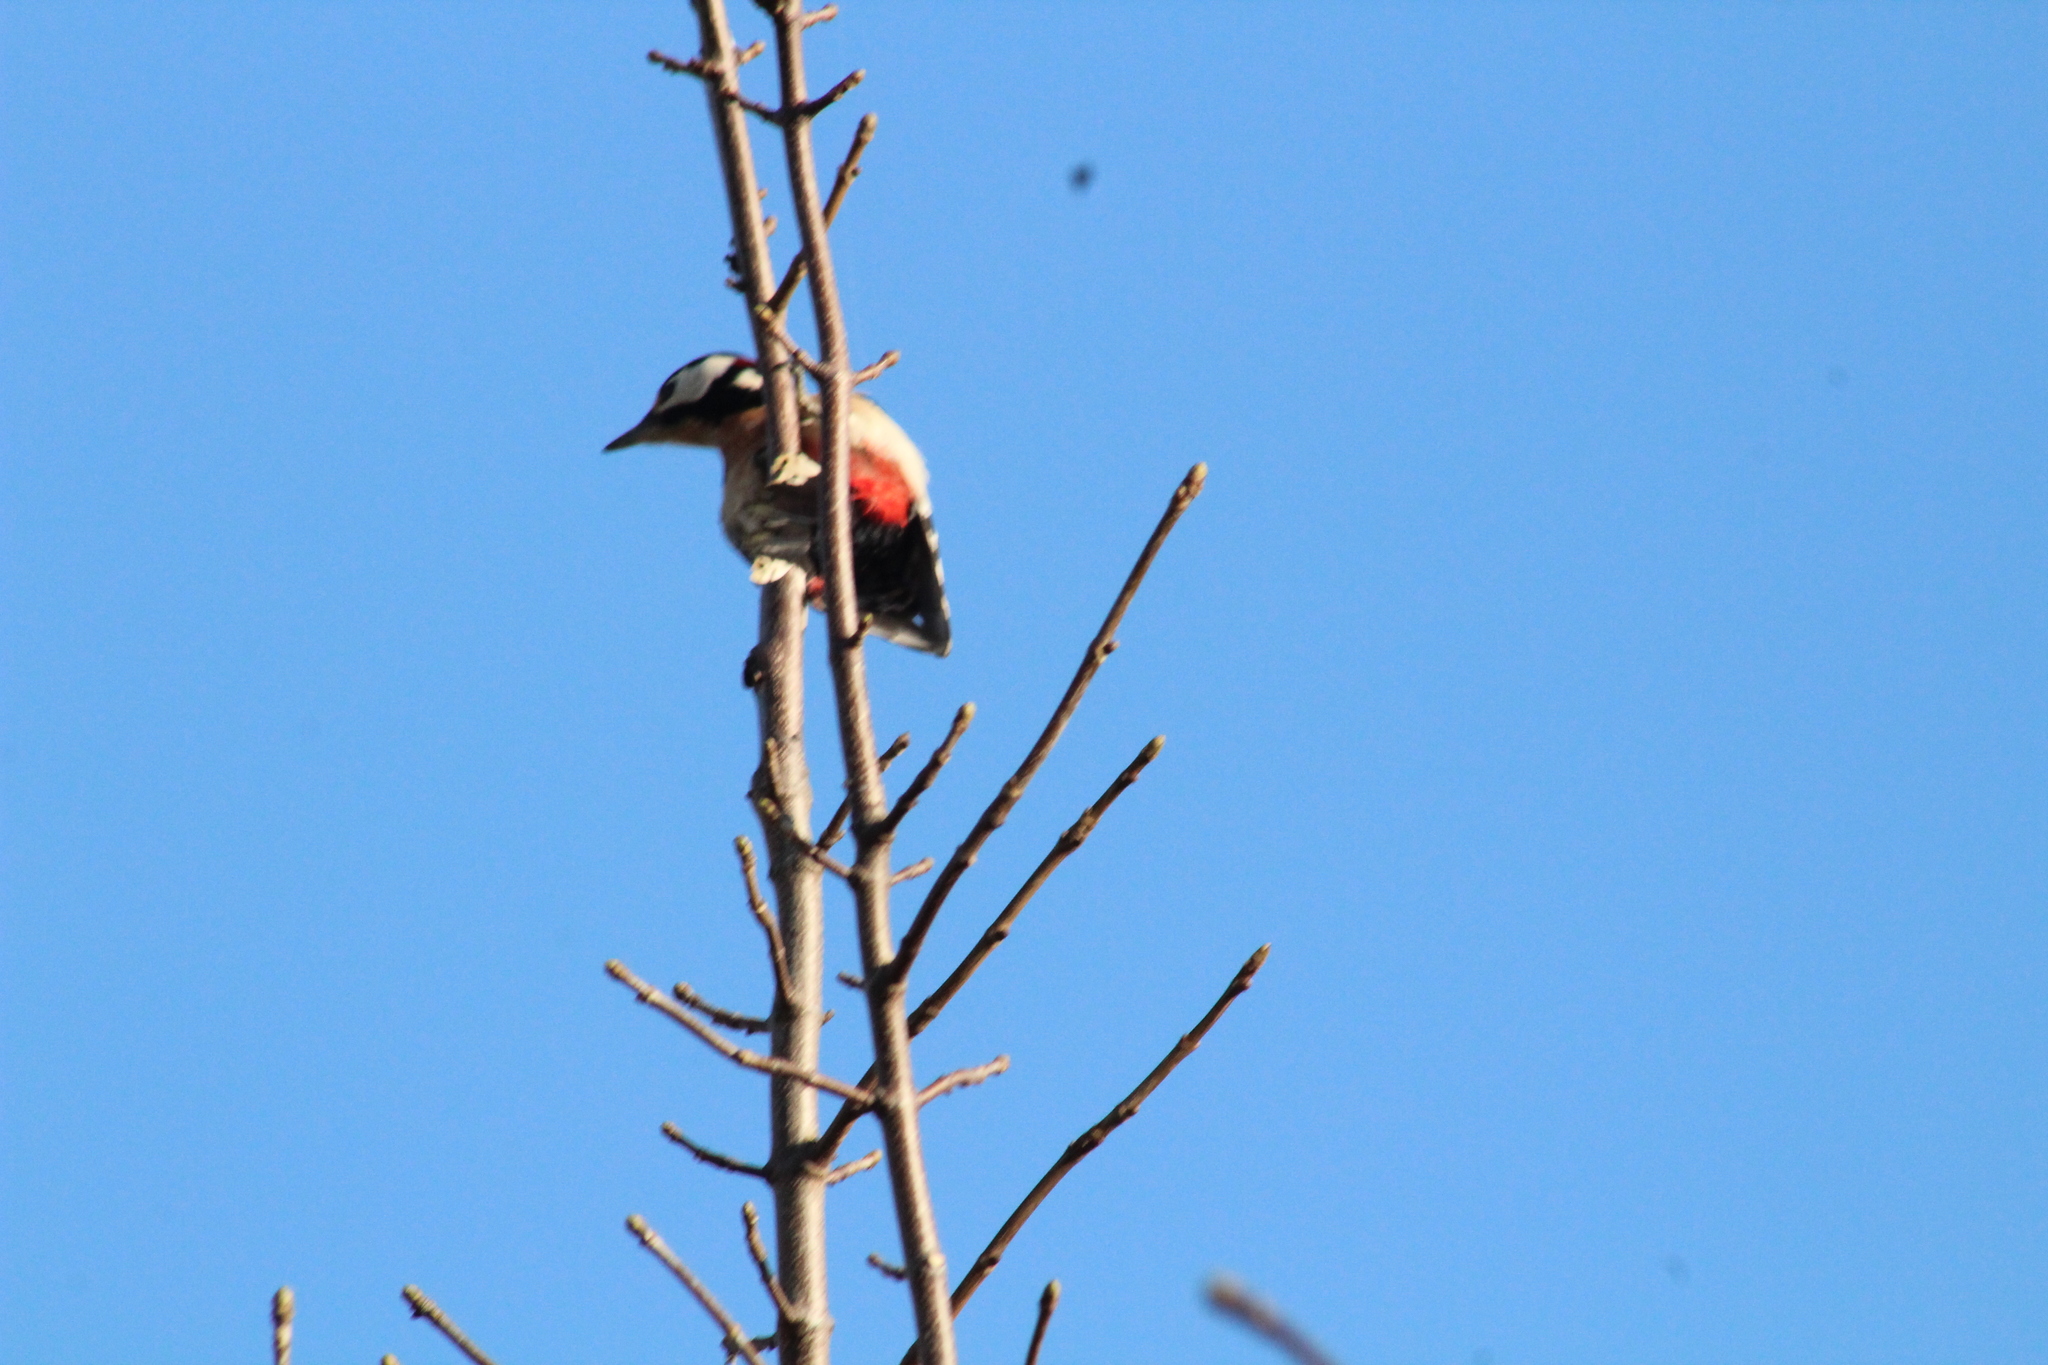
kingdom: Animalia
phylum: Chordata
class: Aves
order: Piciformes
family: Picidae
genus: Dendrocopos
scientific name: Dendrocopos major
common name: Great spotted woodpecker
